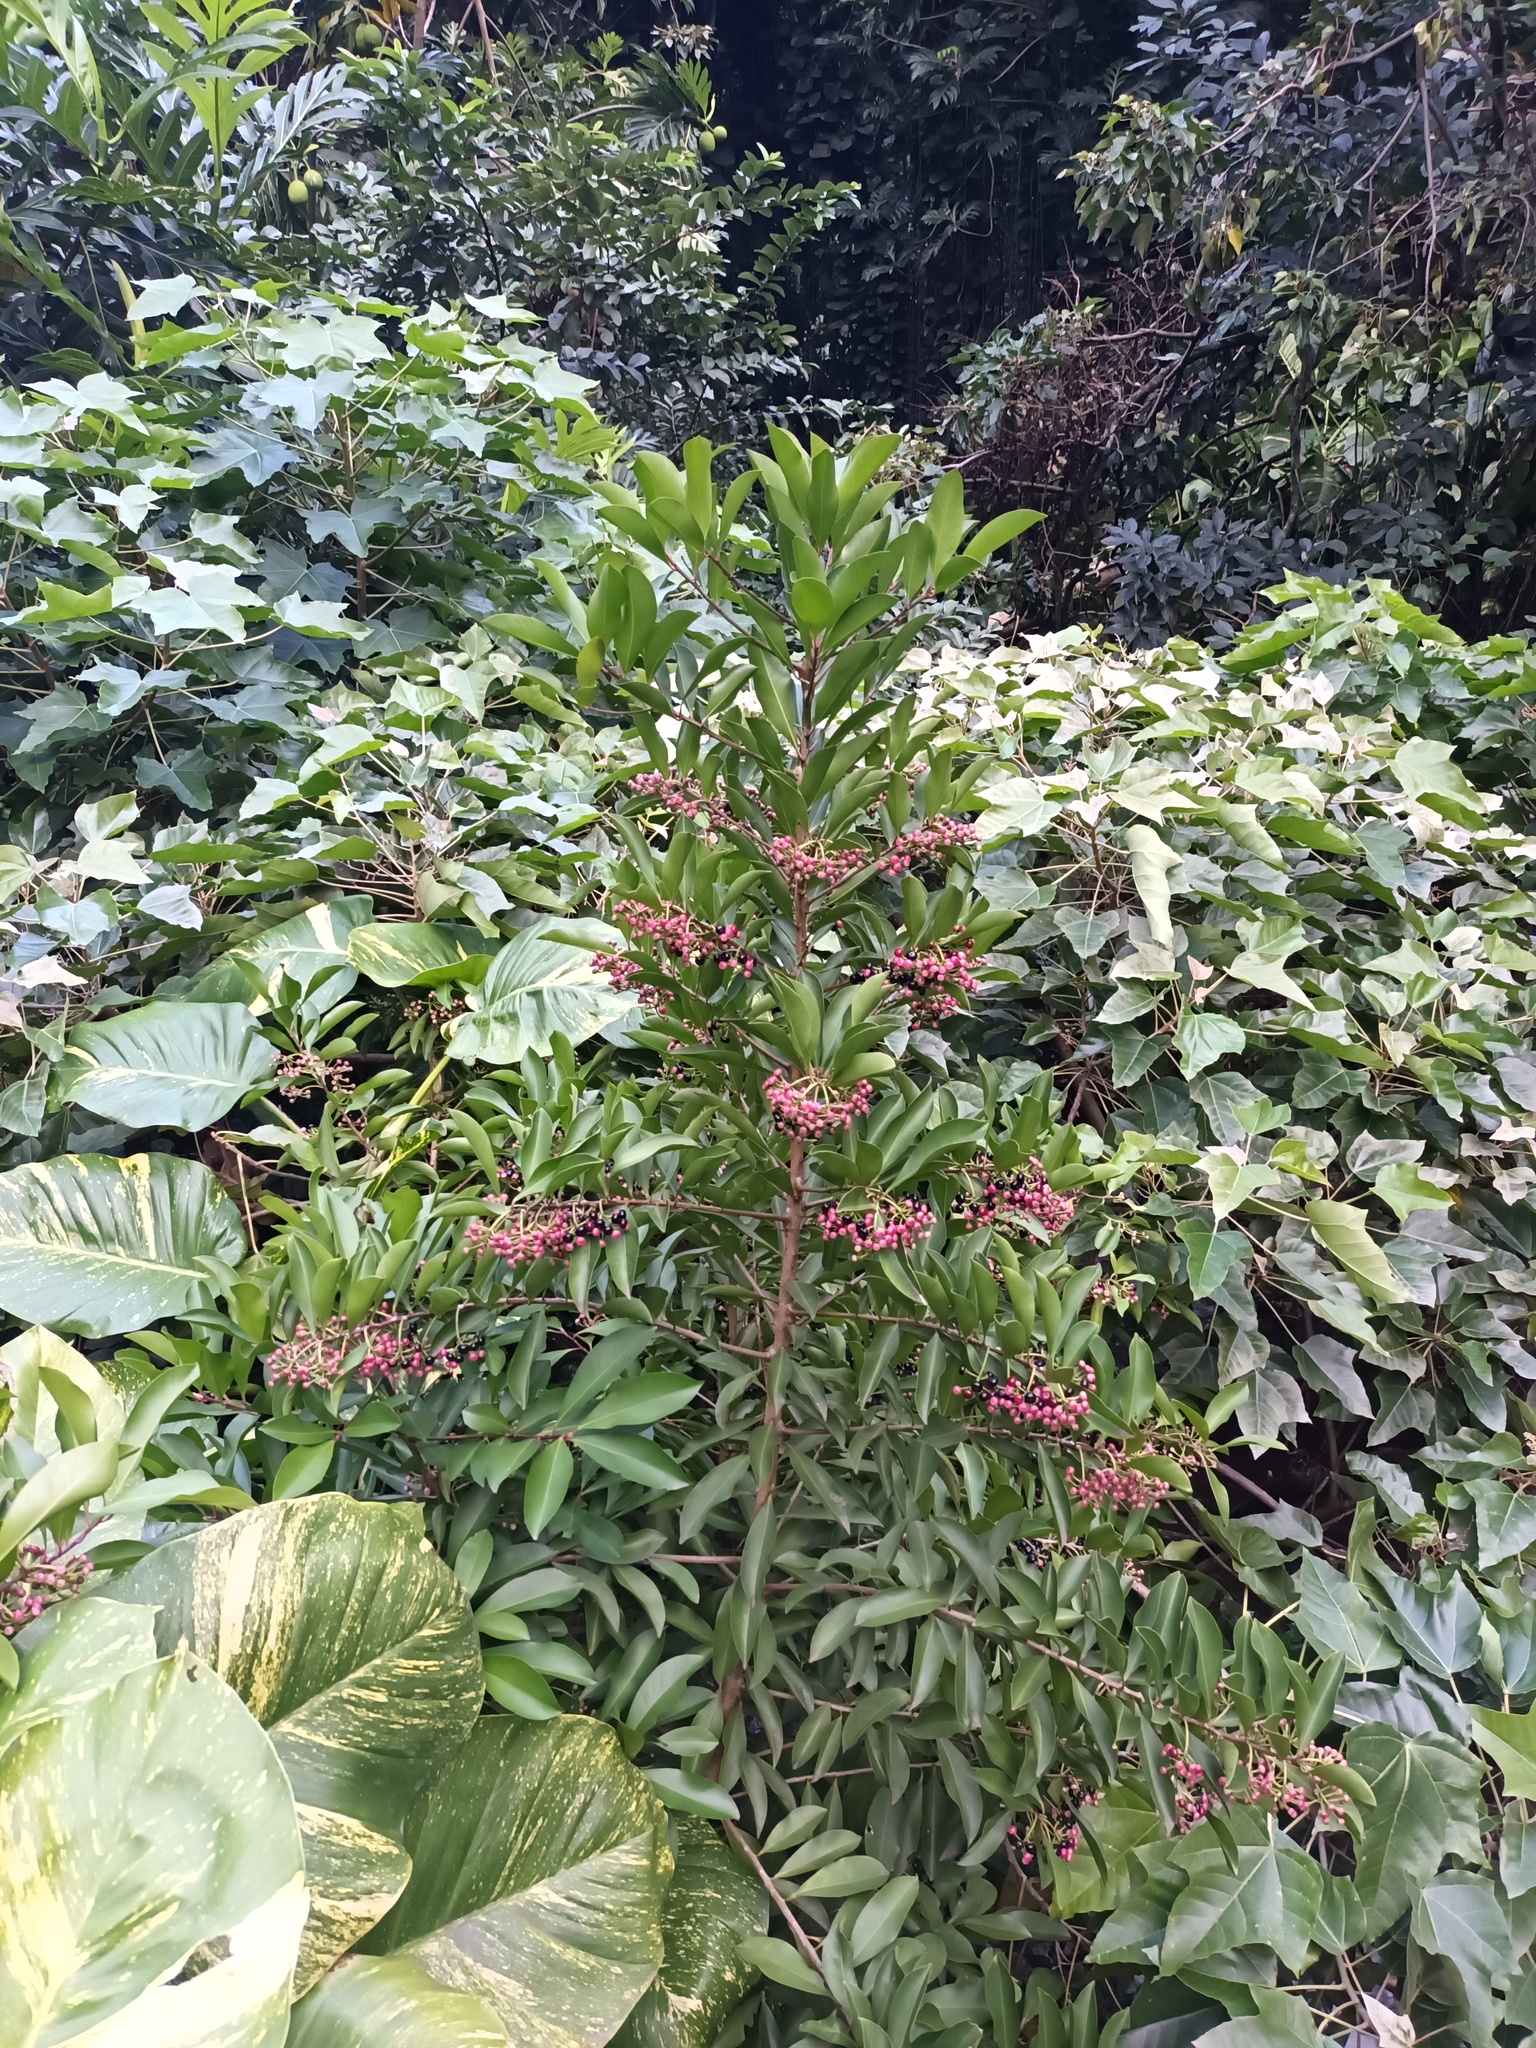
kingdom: Plantae
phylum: Tracheophyta
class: Magnoliopsida
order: Ericales
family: Primulaceae
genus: Ardisia
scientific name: Ardisia elliptica
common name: Shoebutton
